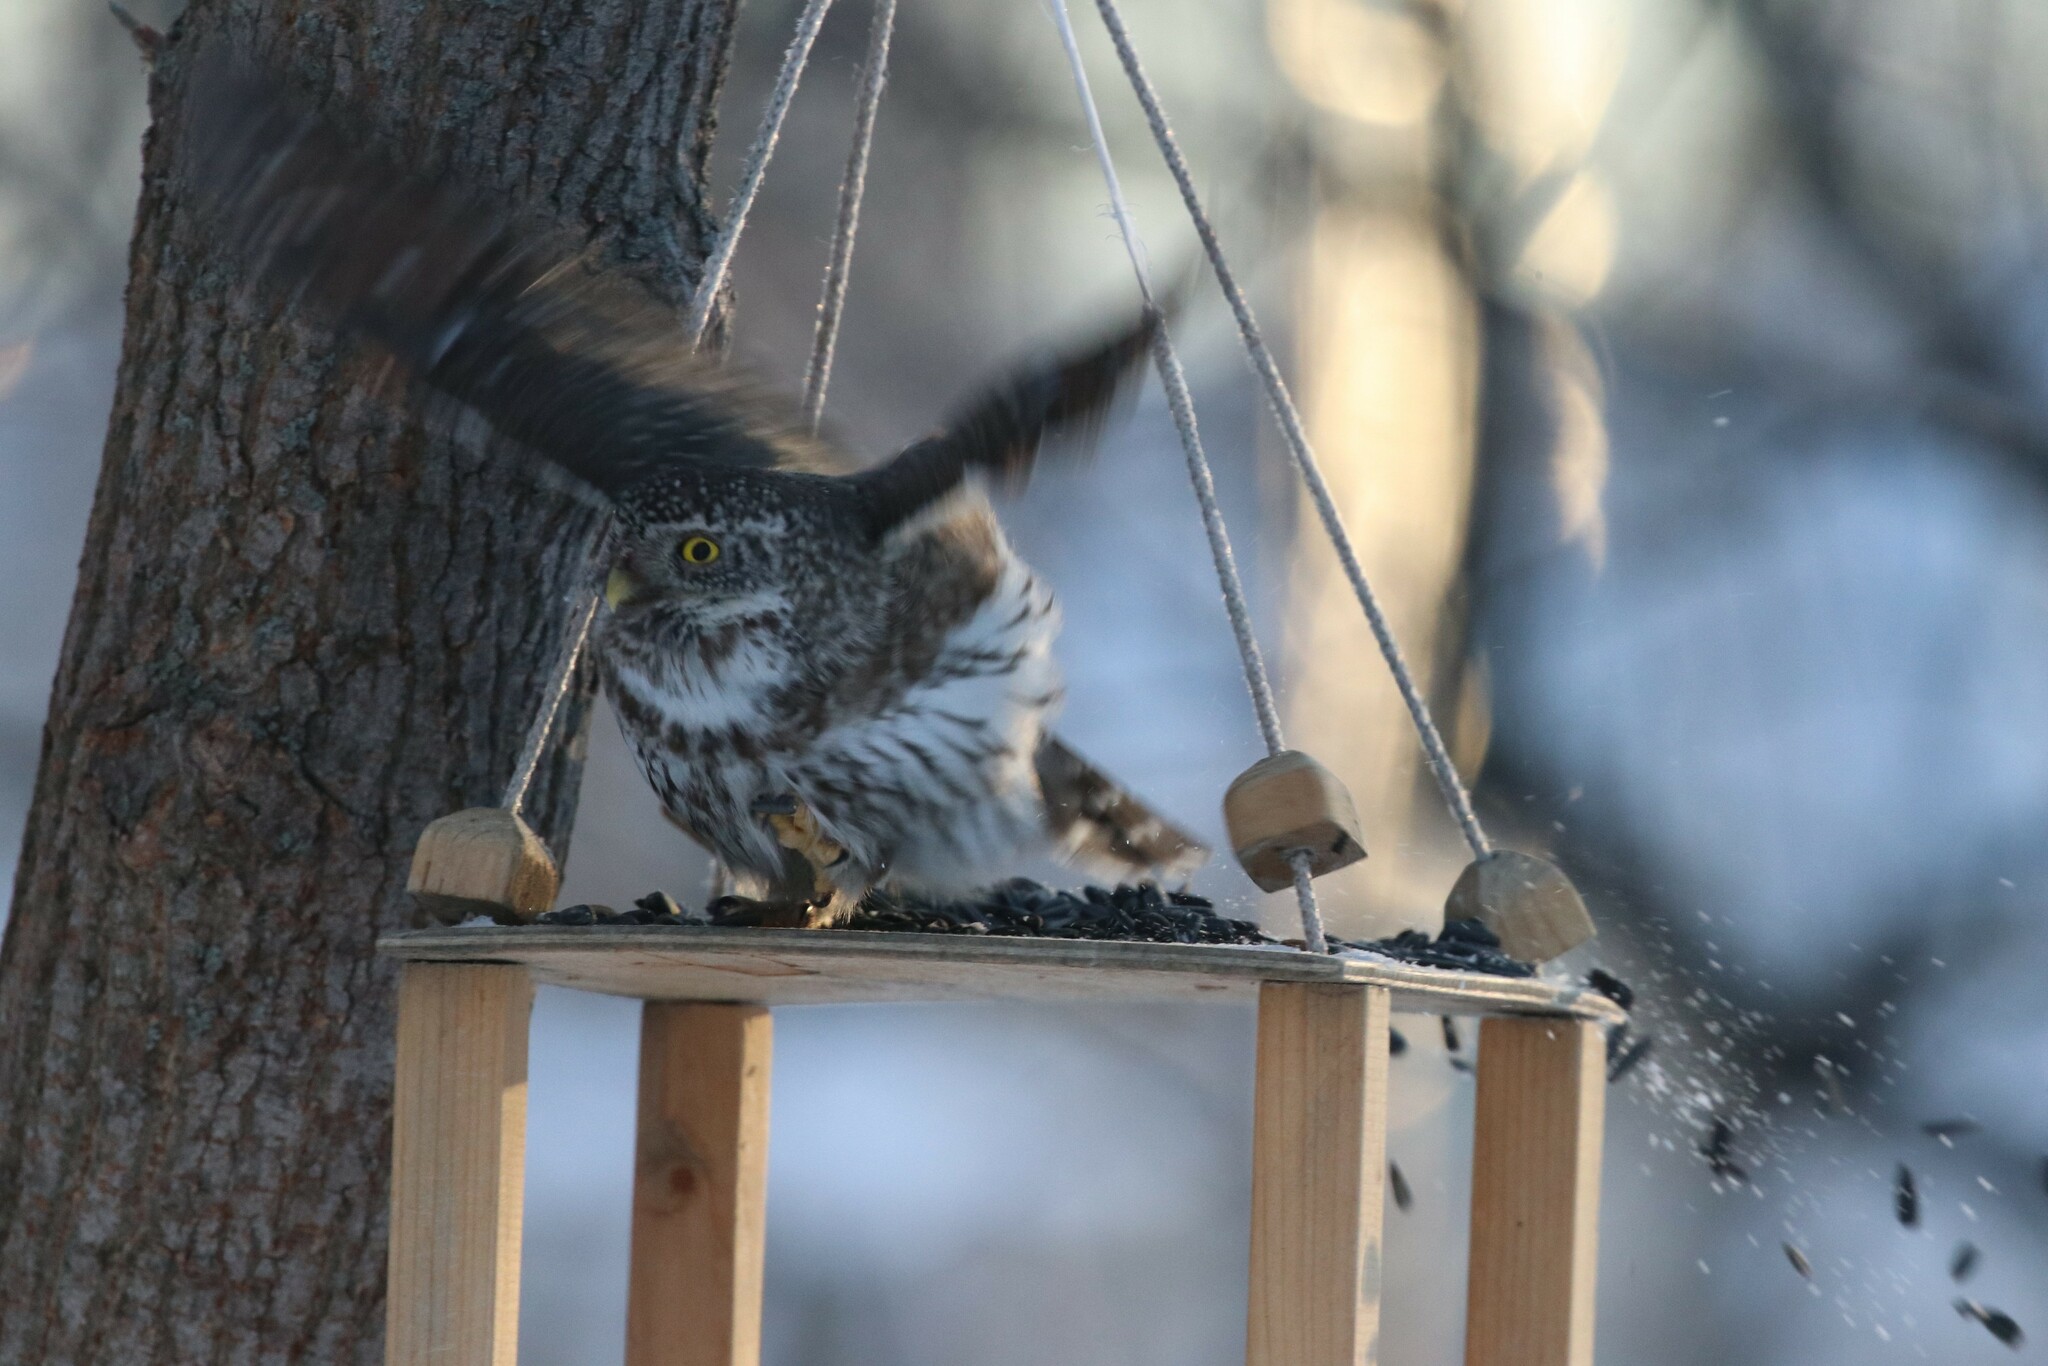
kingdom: Animalia
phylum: Chordata
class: Aves
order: Strigiformes
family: Strigidae
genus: Glaucidium
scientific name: Glaucidium passerinum
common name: Eurasian pygmy owl
